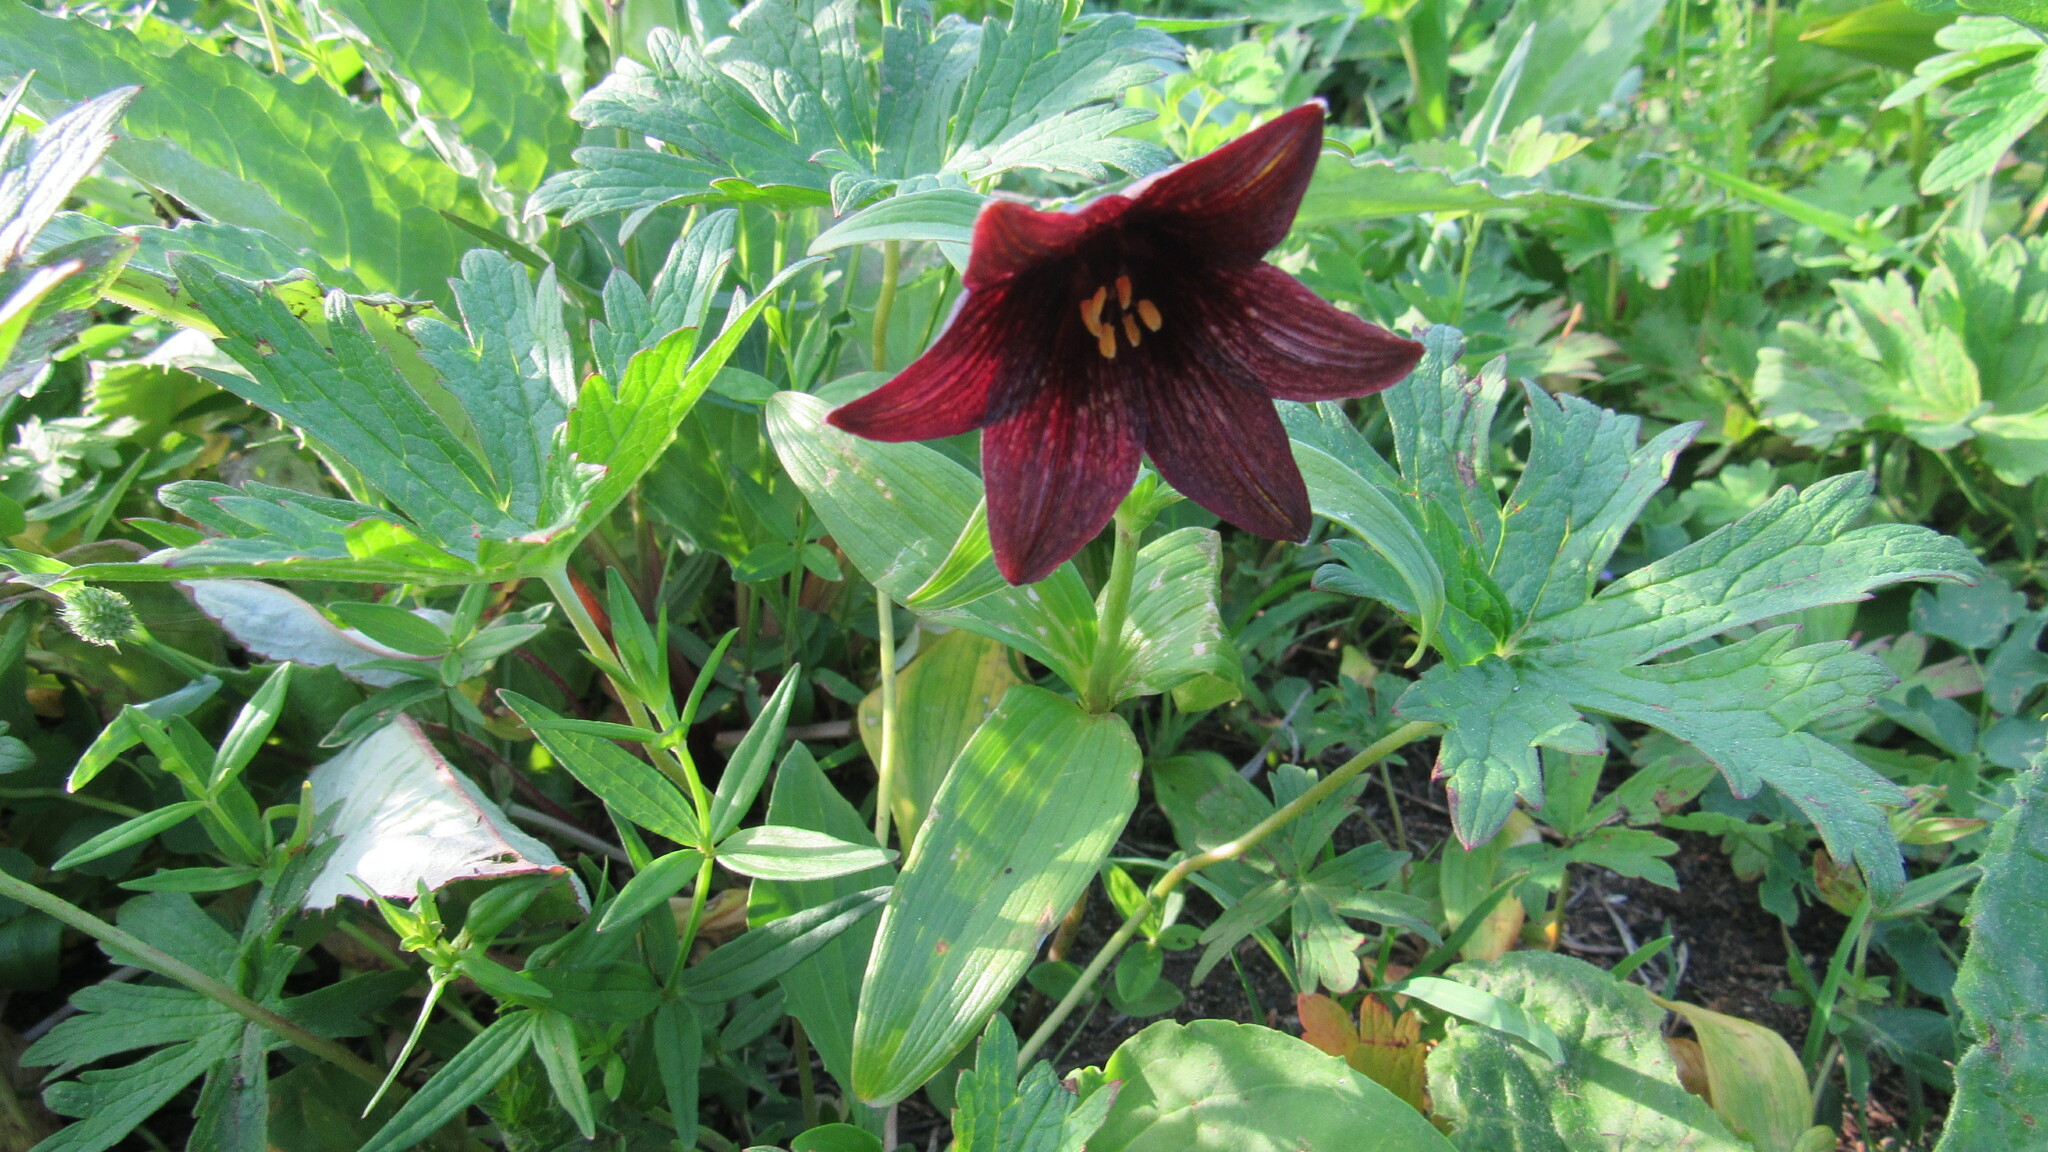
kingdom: Plantae
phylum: Tracheophyta
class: Liliopsida
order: Liliales
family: Liliaceae
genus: Fritillaria
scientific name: Fritillaria camschatcensis
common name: Kamchatka fritillary
